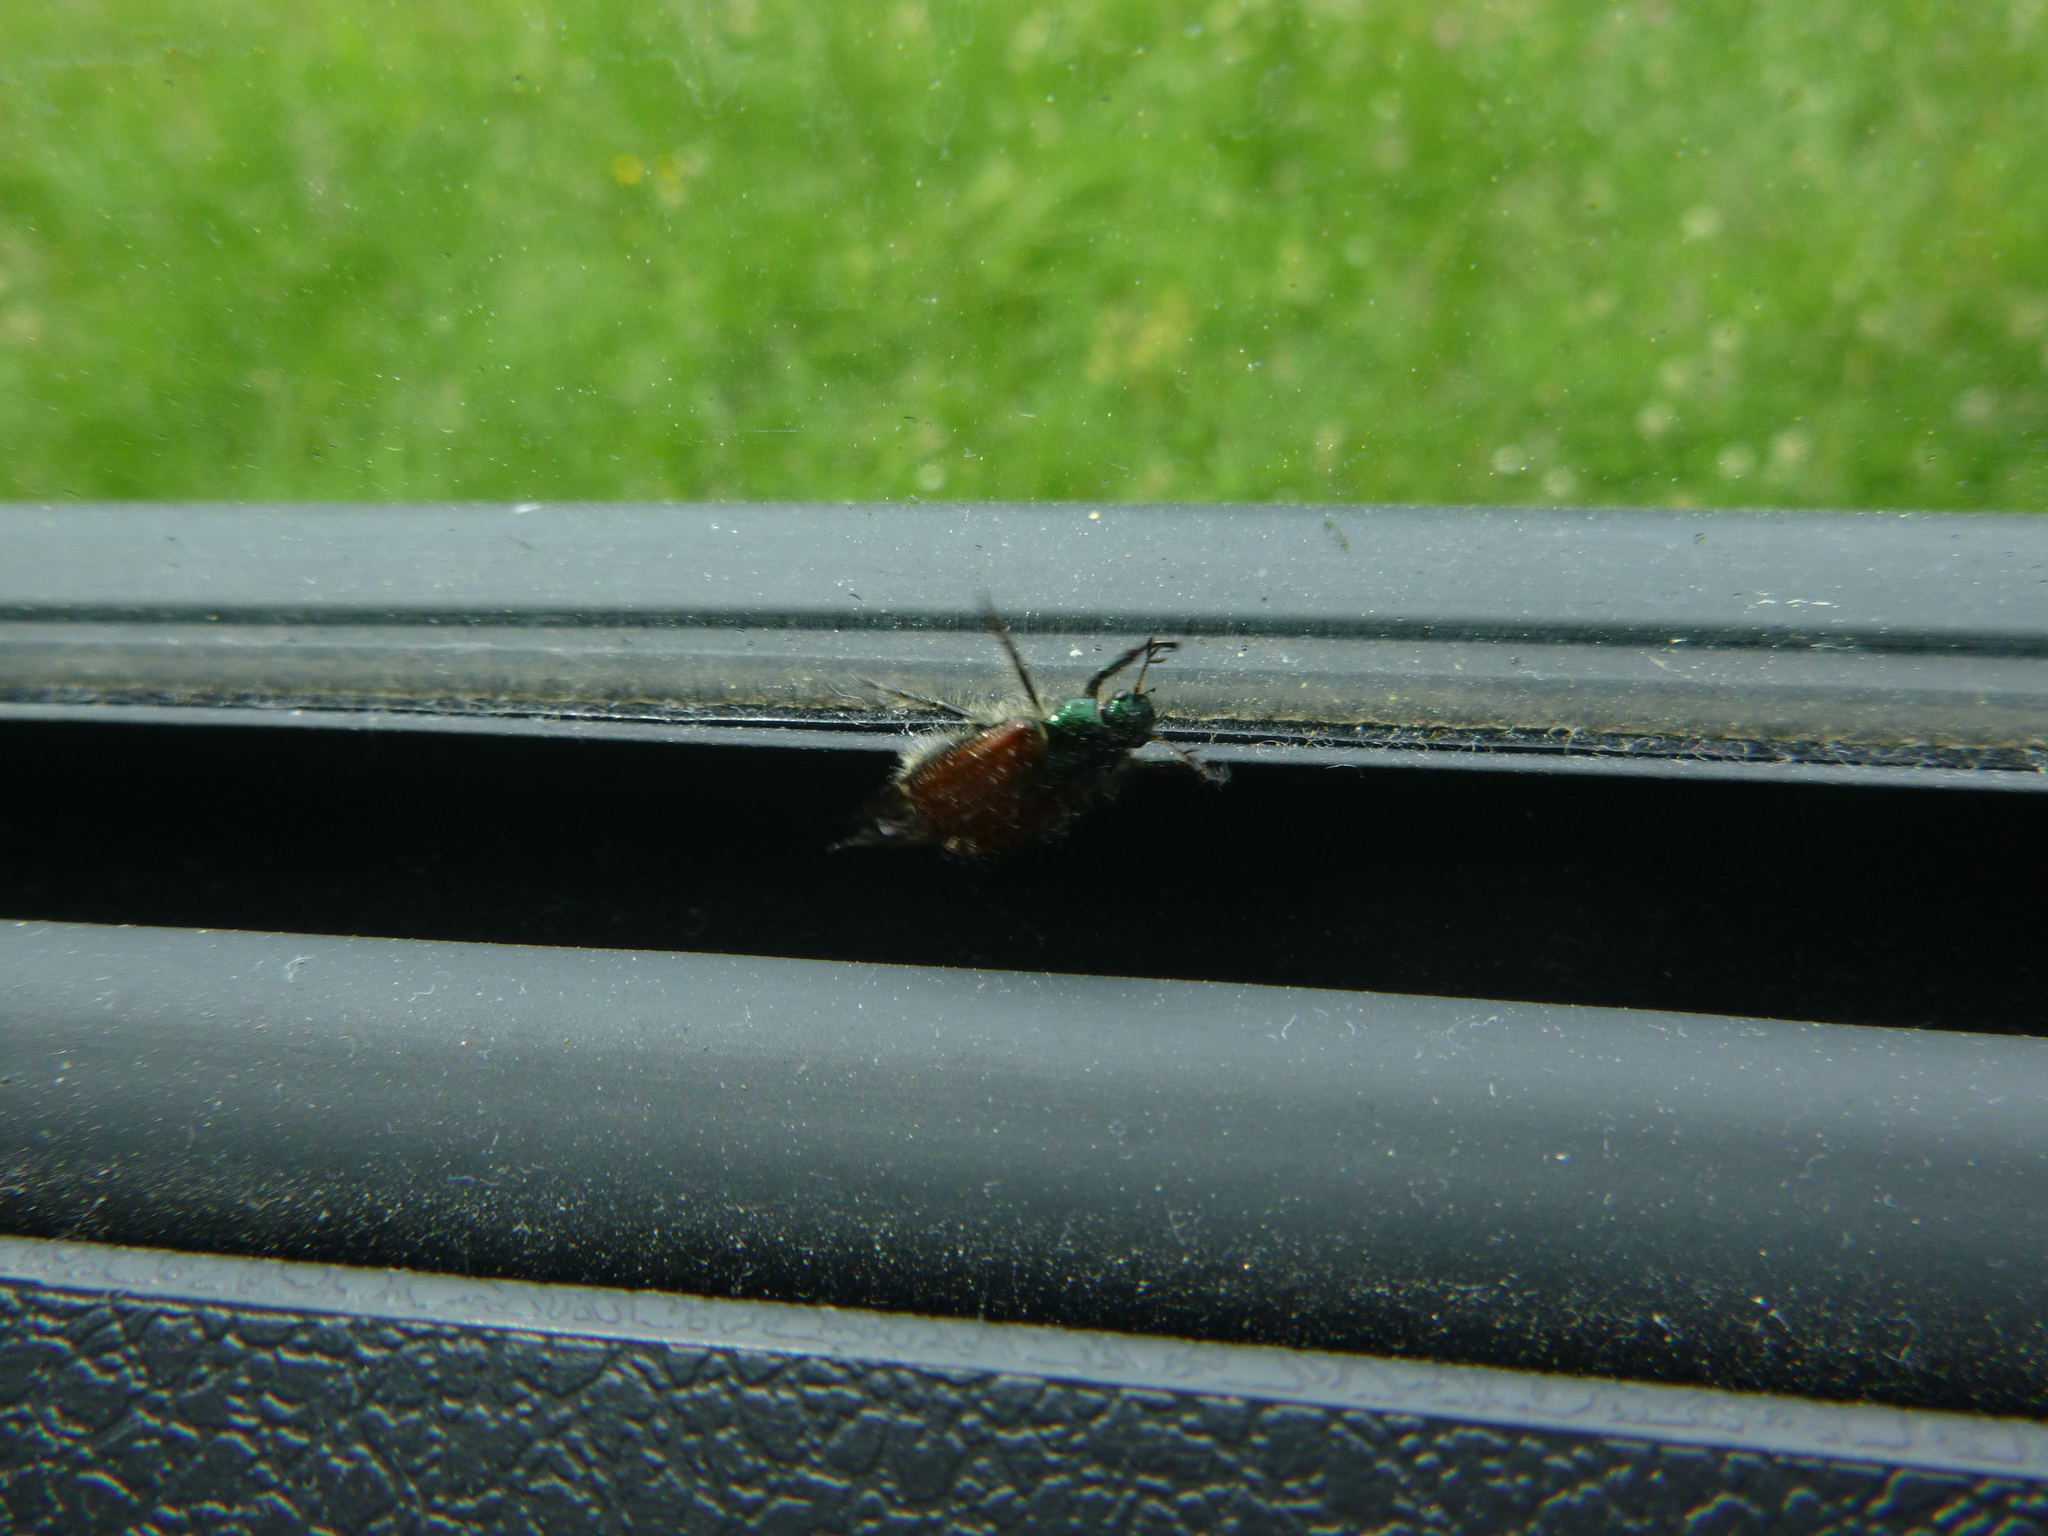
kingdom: Animalia
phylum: Arthropoda
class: Insecta
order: Coleoptera
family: Scarabaeidae
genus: Phyllopertha
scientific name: Phyllopertha horticola
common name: Garden chafer
